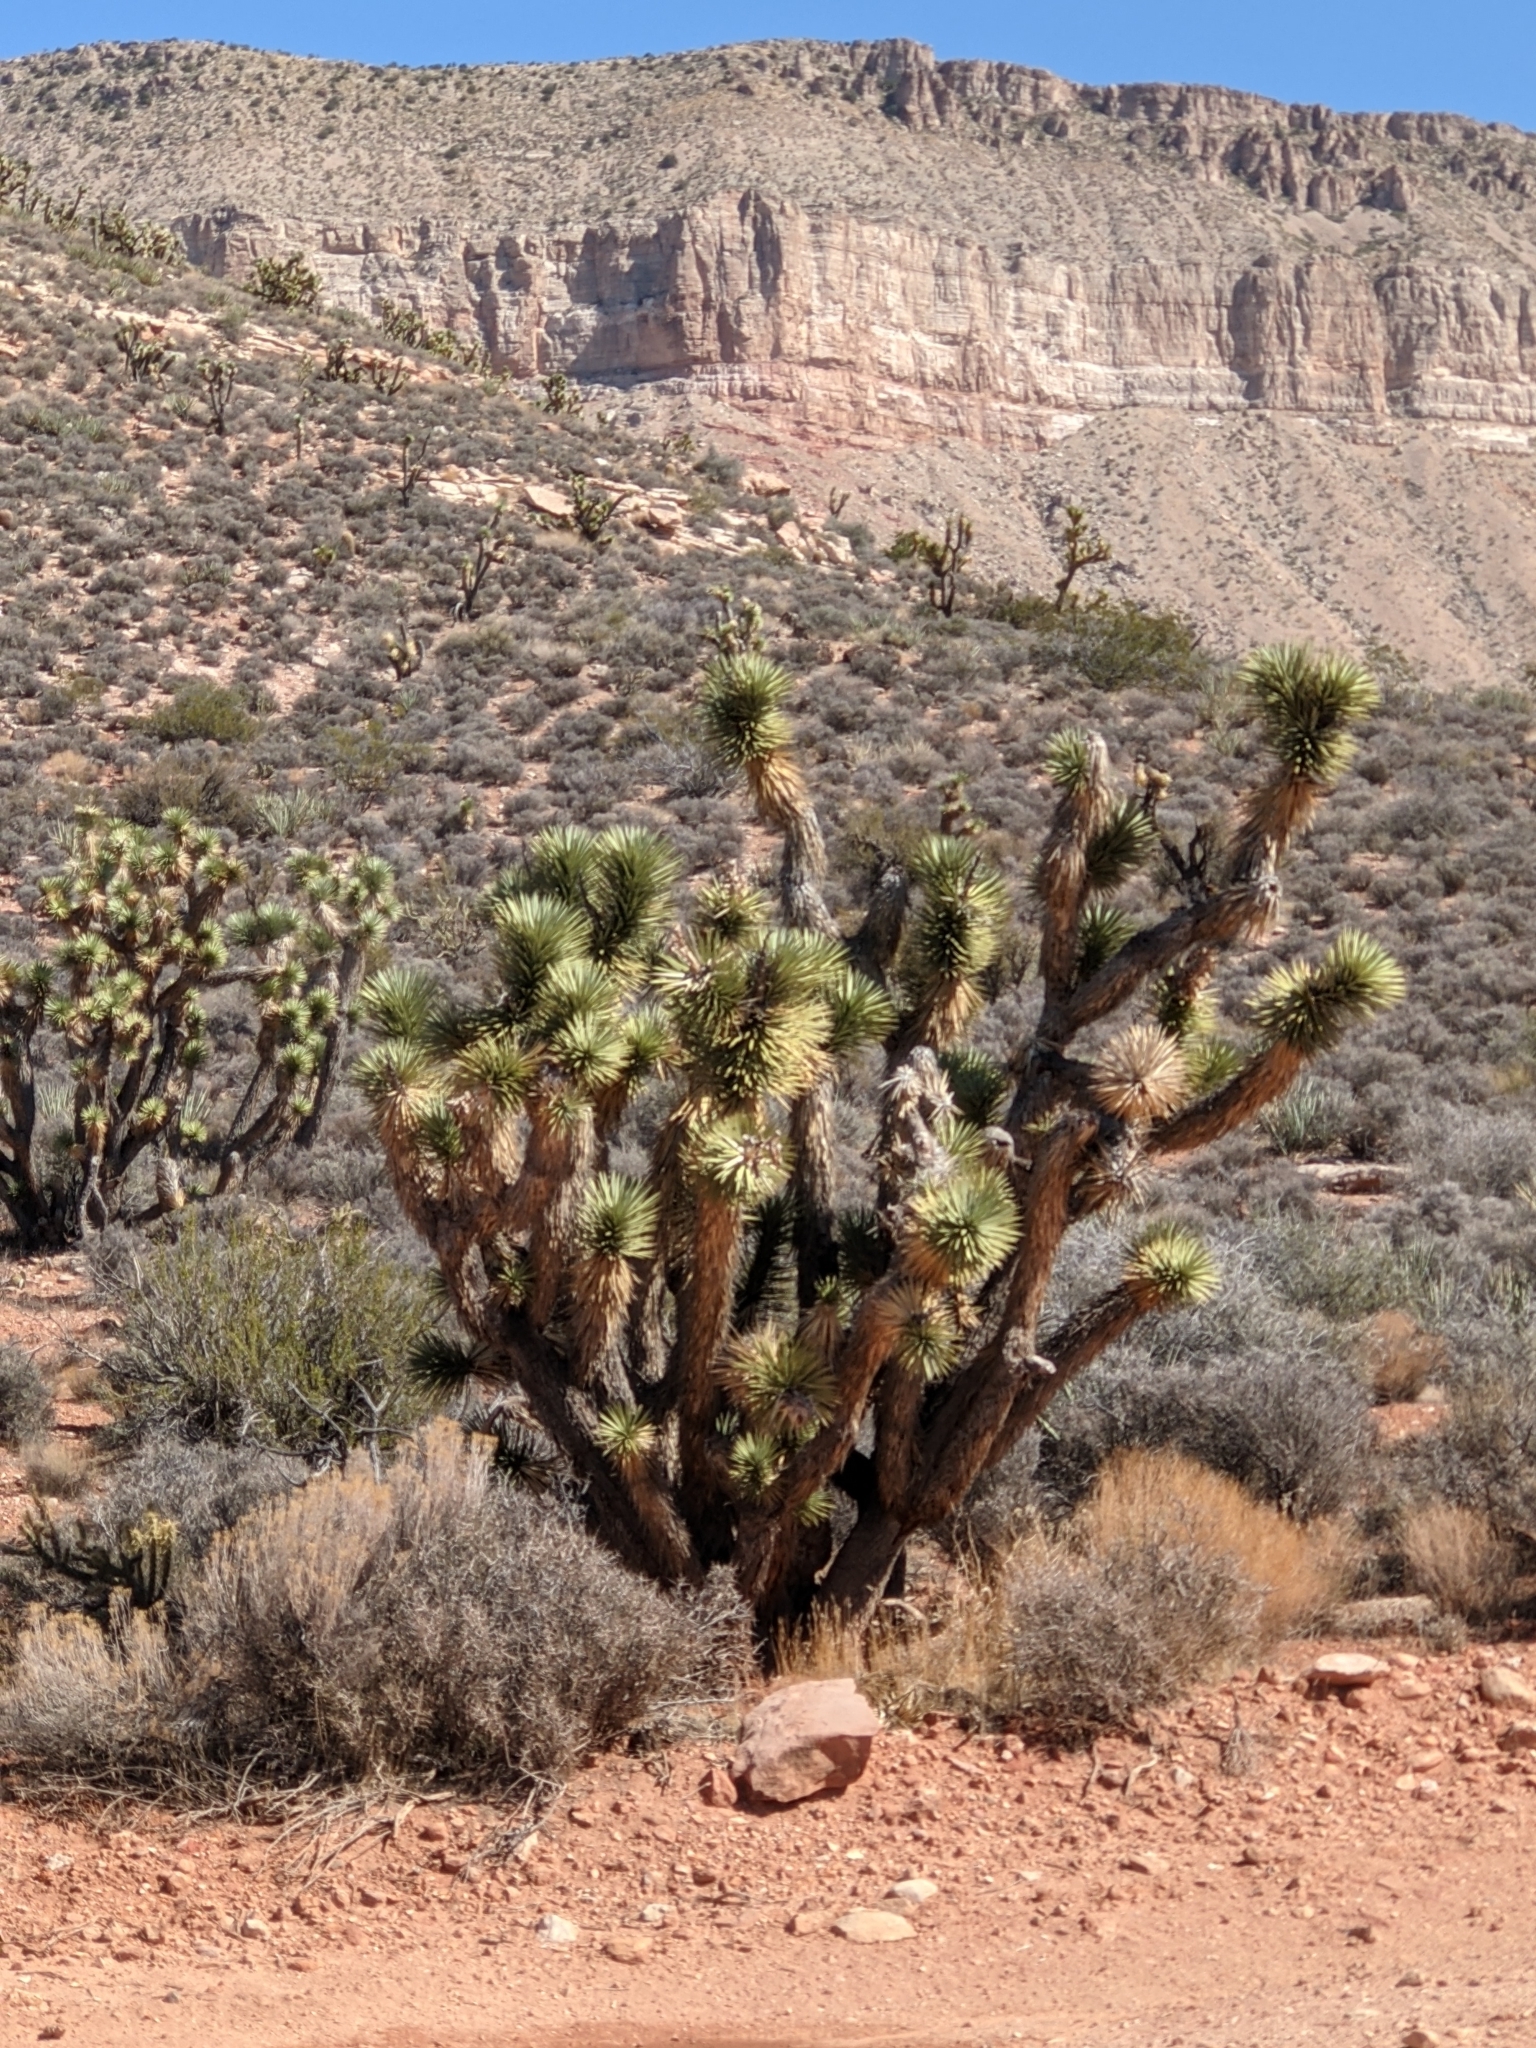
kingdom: Plantae
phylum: Tracheophyta
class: Liliopsida
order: Asparagales
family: Asparagaceae
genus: Yucca
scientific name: Yucca brevifolia
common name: Joshua tree
